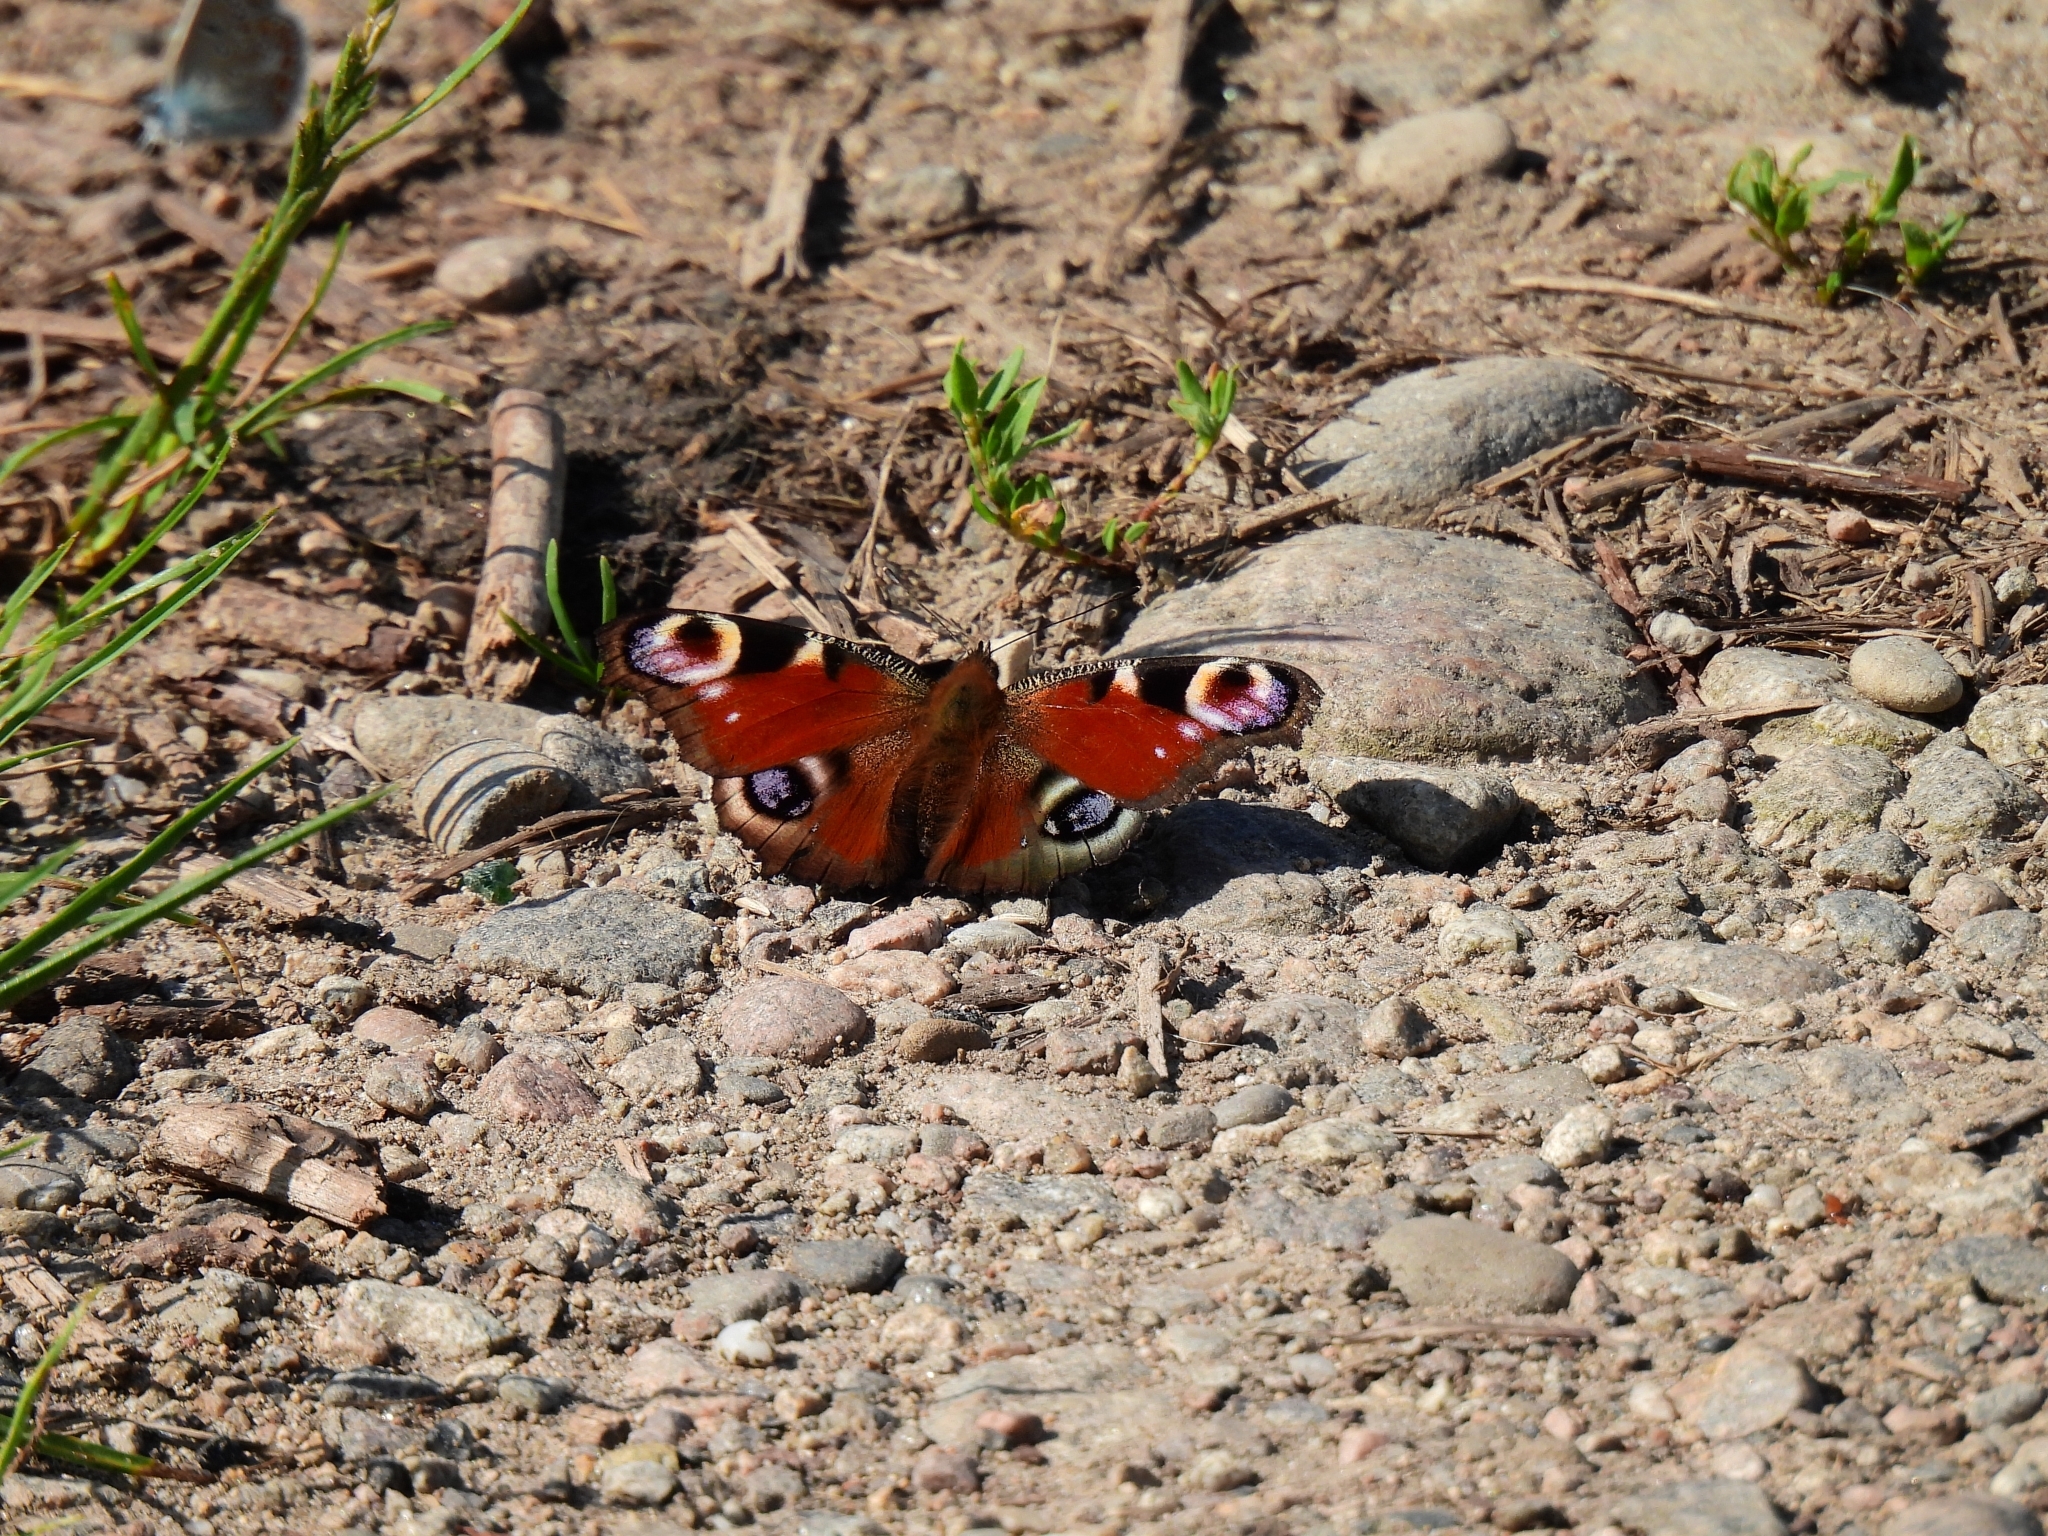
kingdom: Animalia
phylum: Arthropoda
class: Insecta
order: Lepidoptera
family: Nymphalidae
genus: Aglais
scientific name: Aglais io
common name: Peacock
